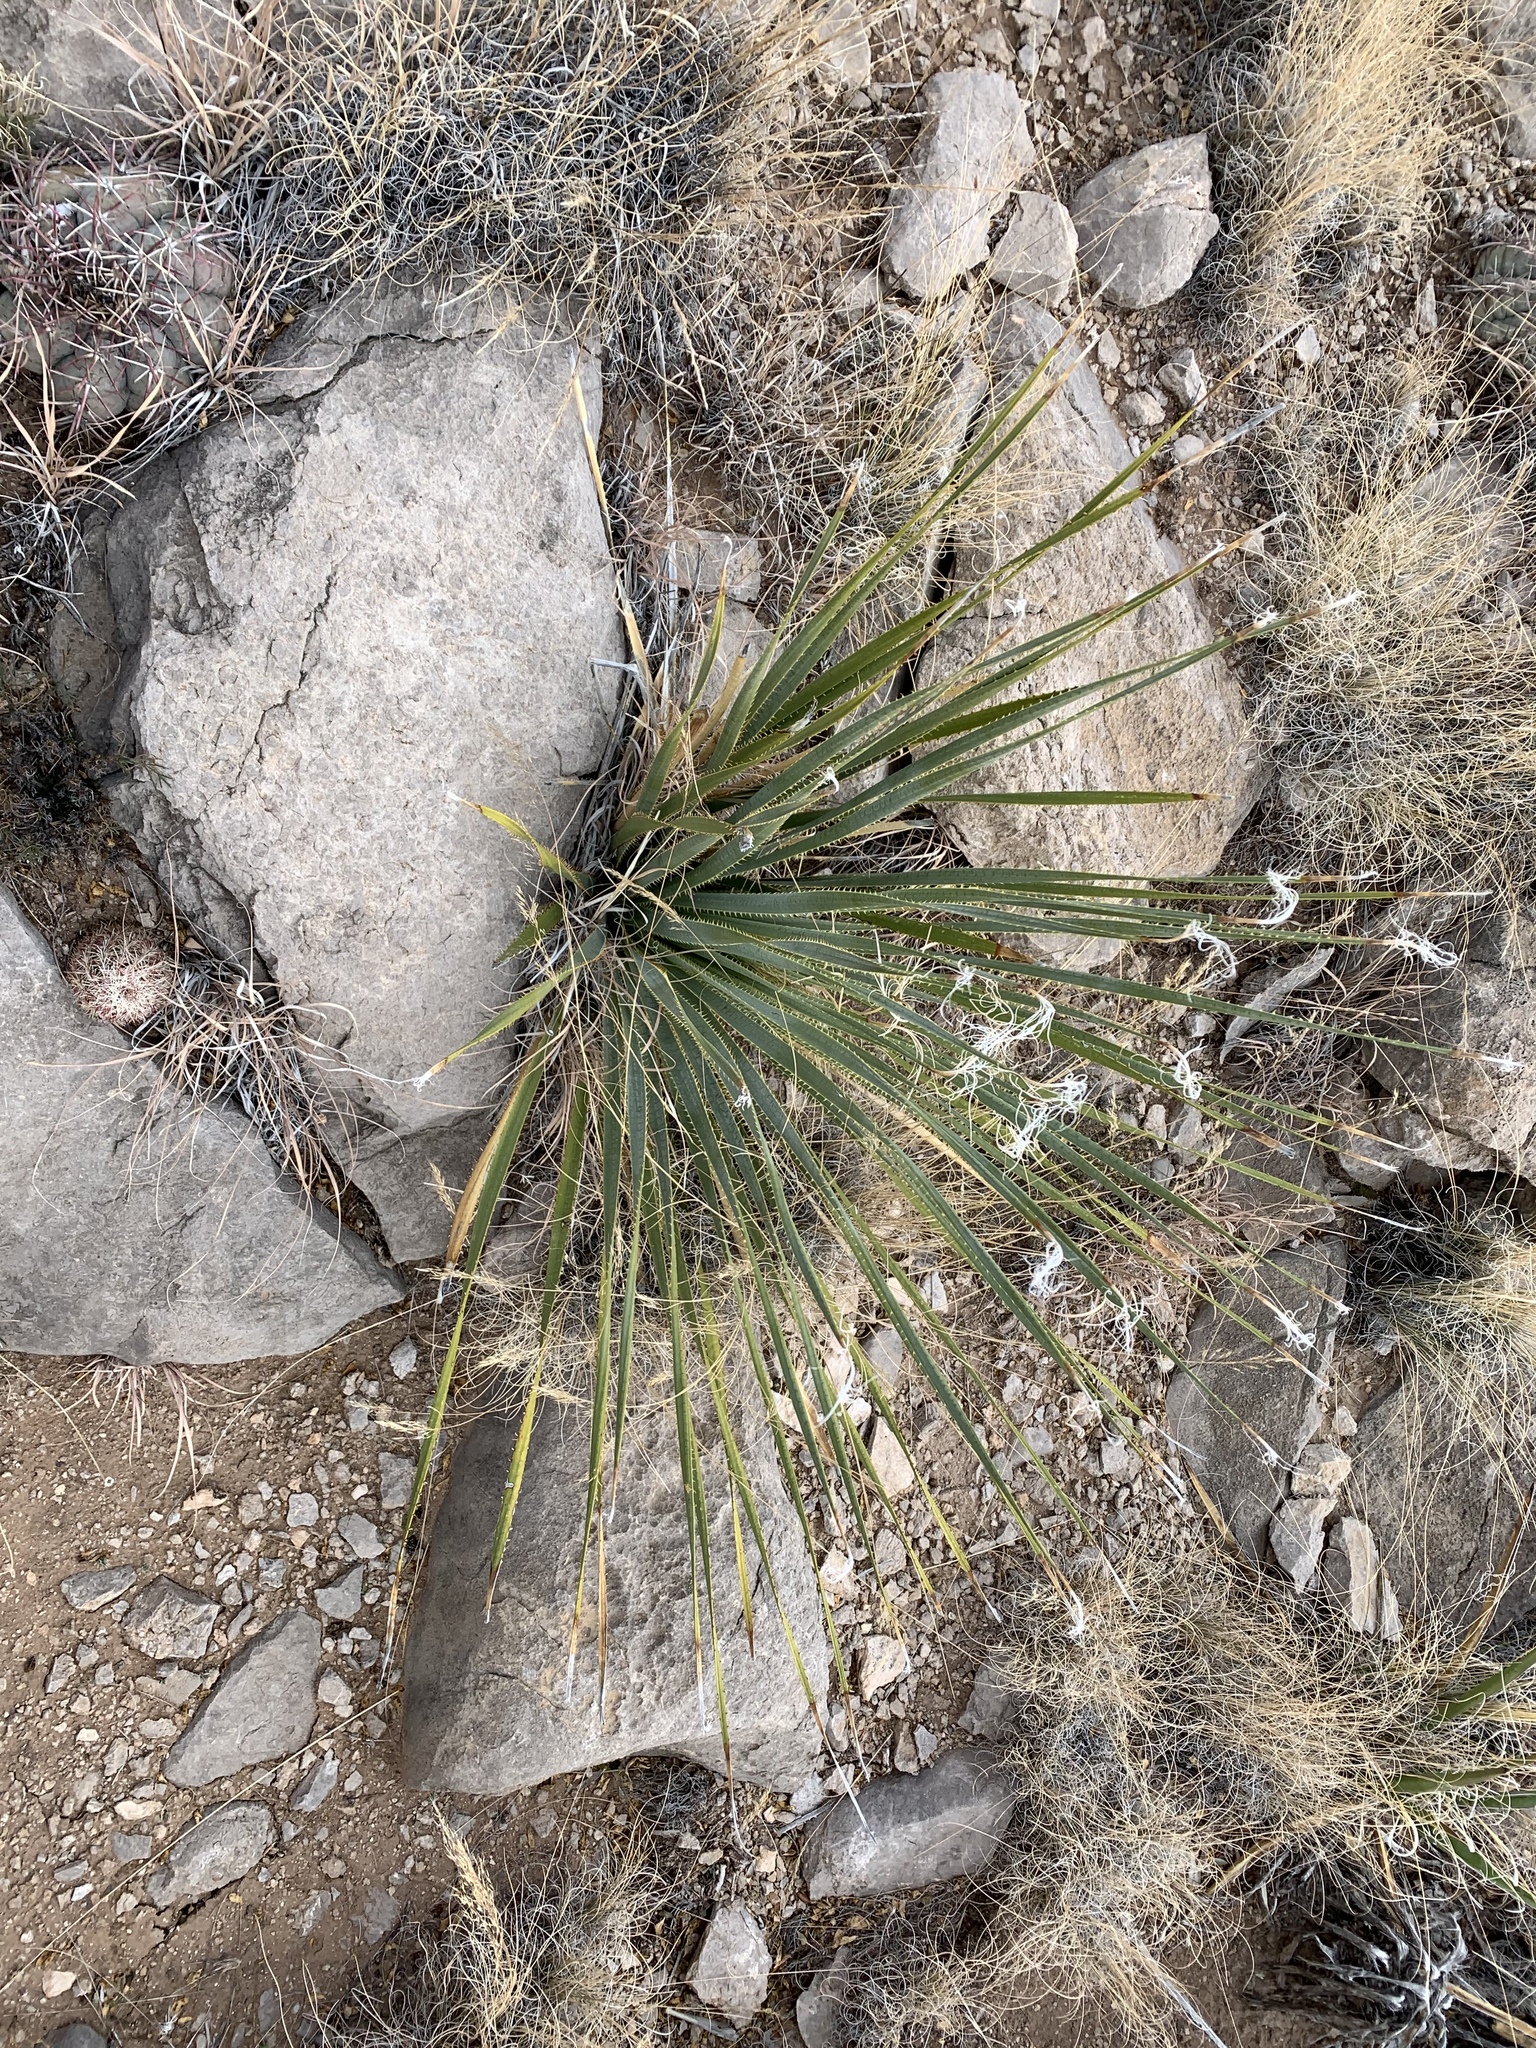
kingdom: Plantae
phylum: Tracheophyta
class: Liliopsida
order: Asparagales
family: Asparagaceae
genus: Dasylirion
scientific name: Dasylirion wheeleri
